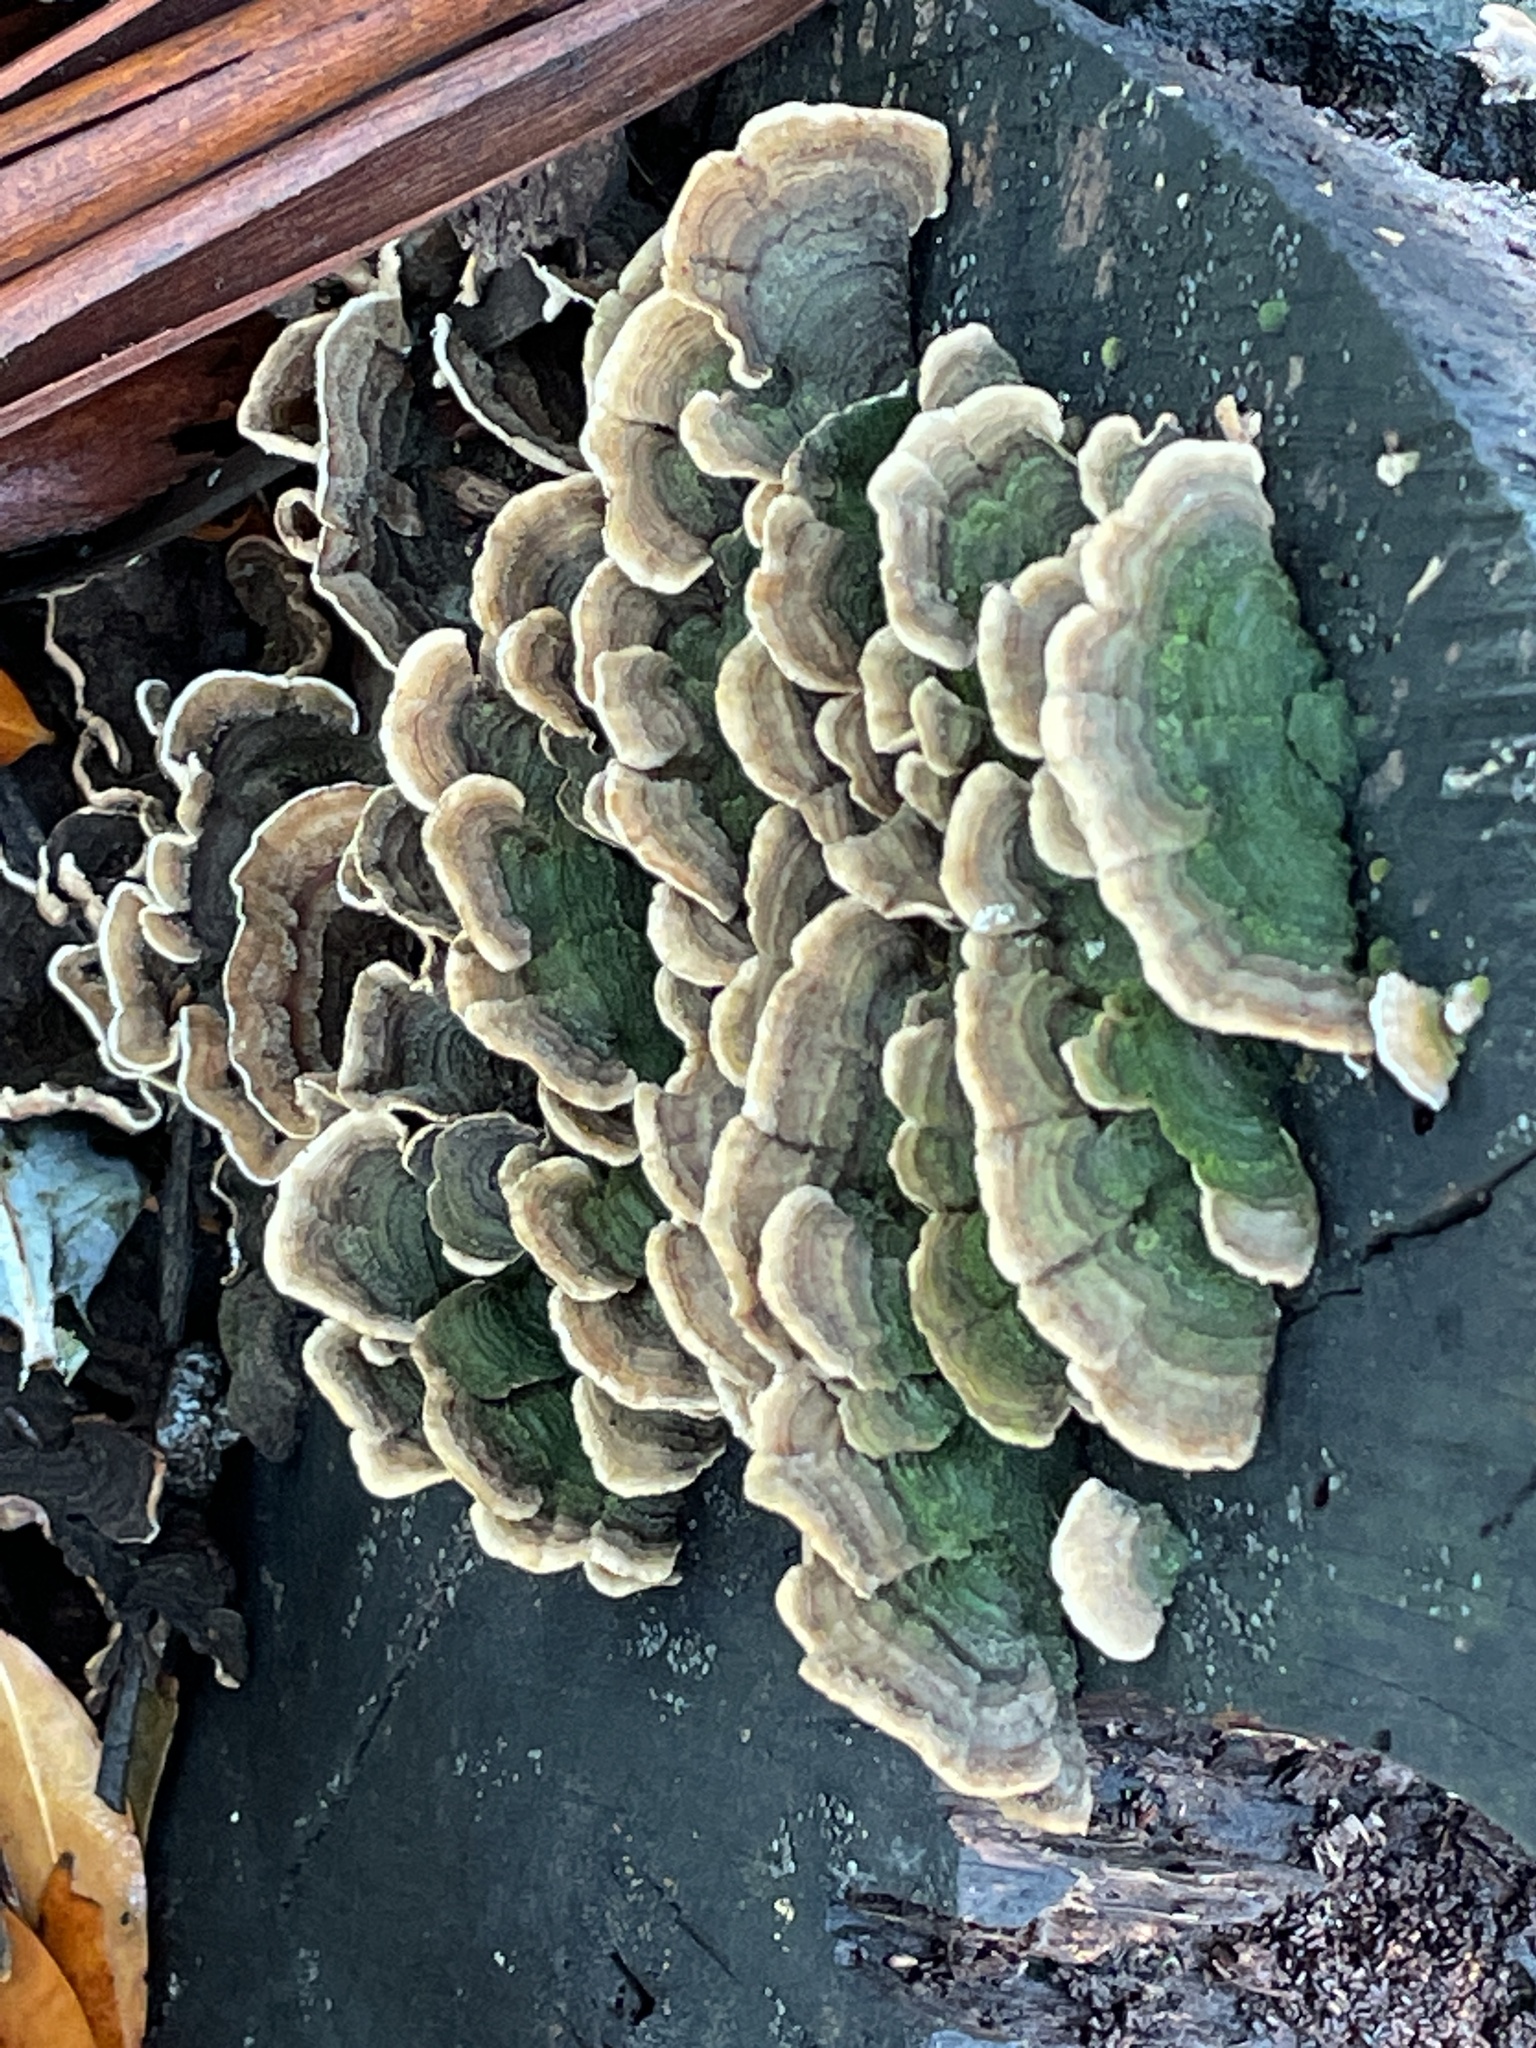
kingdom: Fungi
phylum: Basidiomycota
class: Agaricomycetes
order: Polyporales
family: Cerrenaceae
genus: Cerrena
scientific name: Cerrena unicolor
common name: Mossy maze polypore
